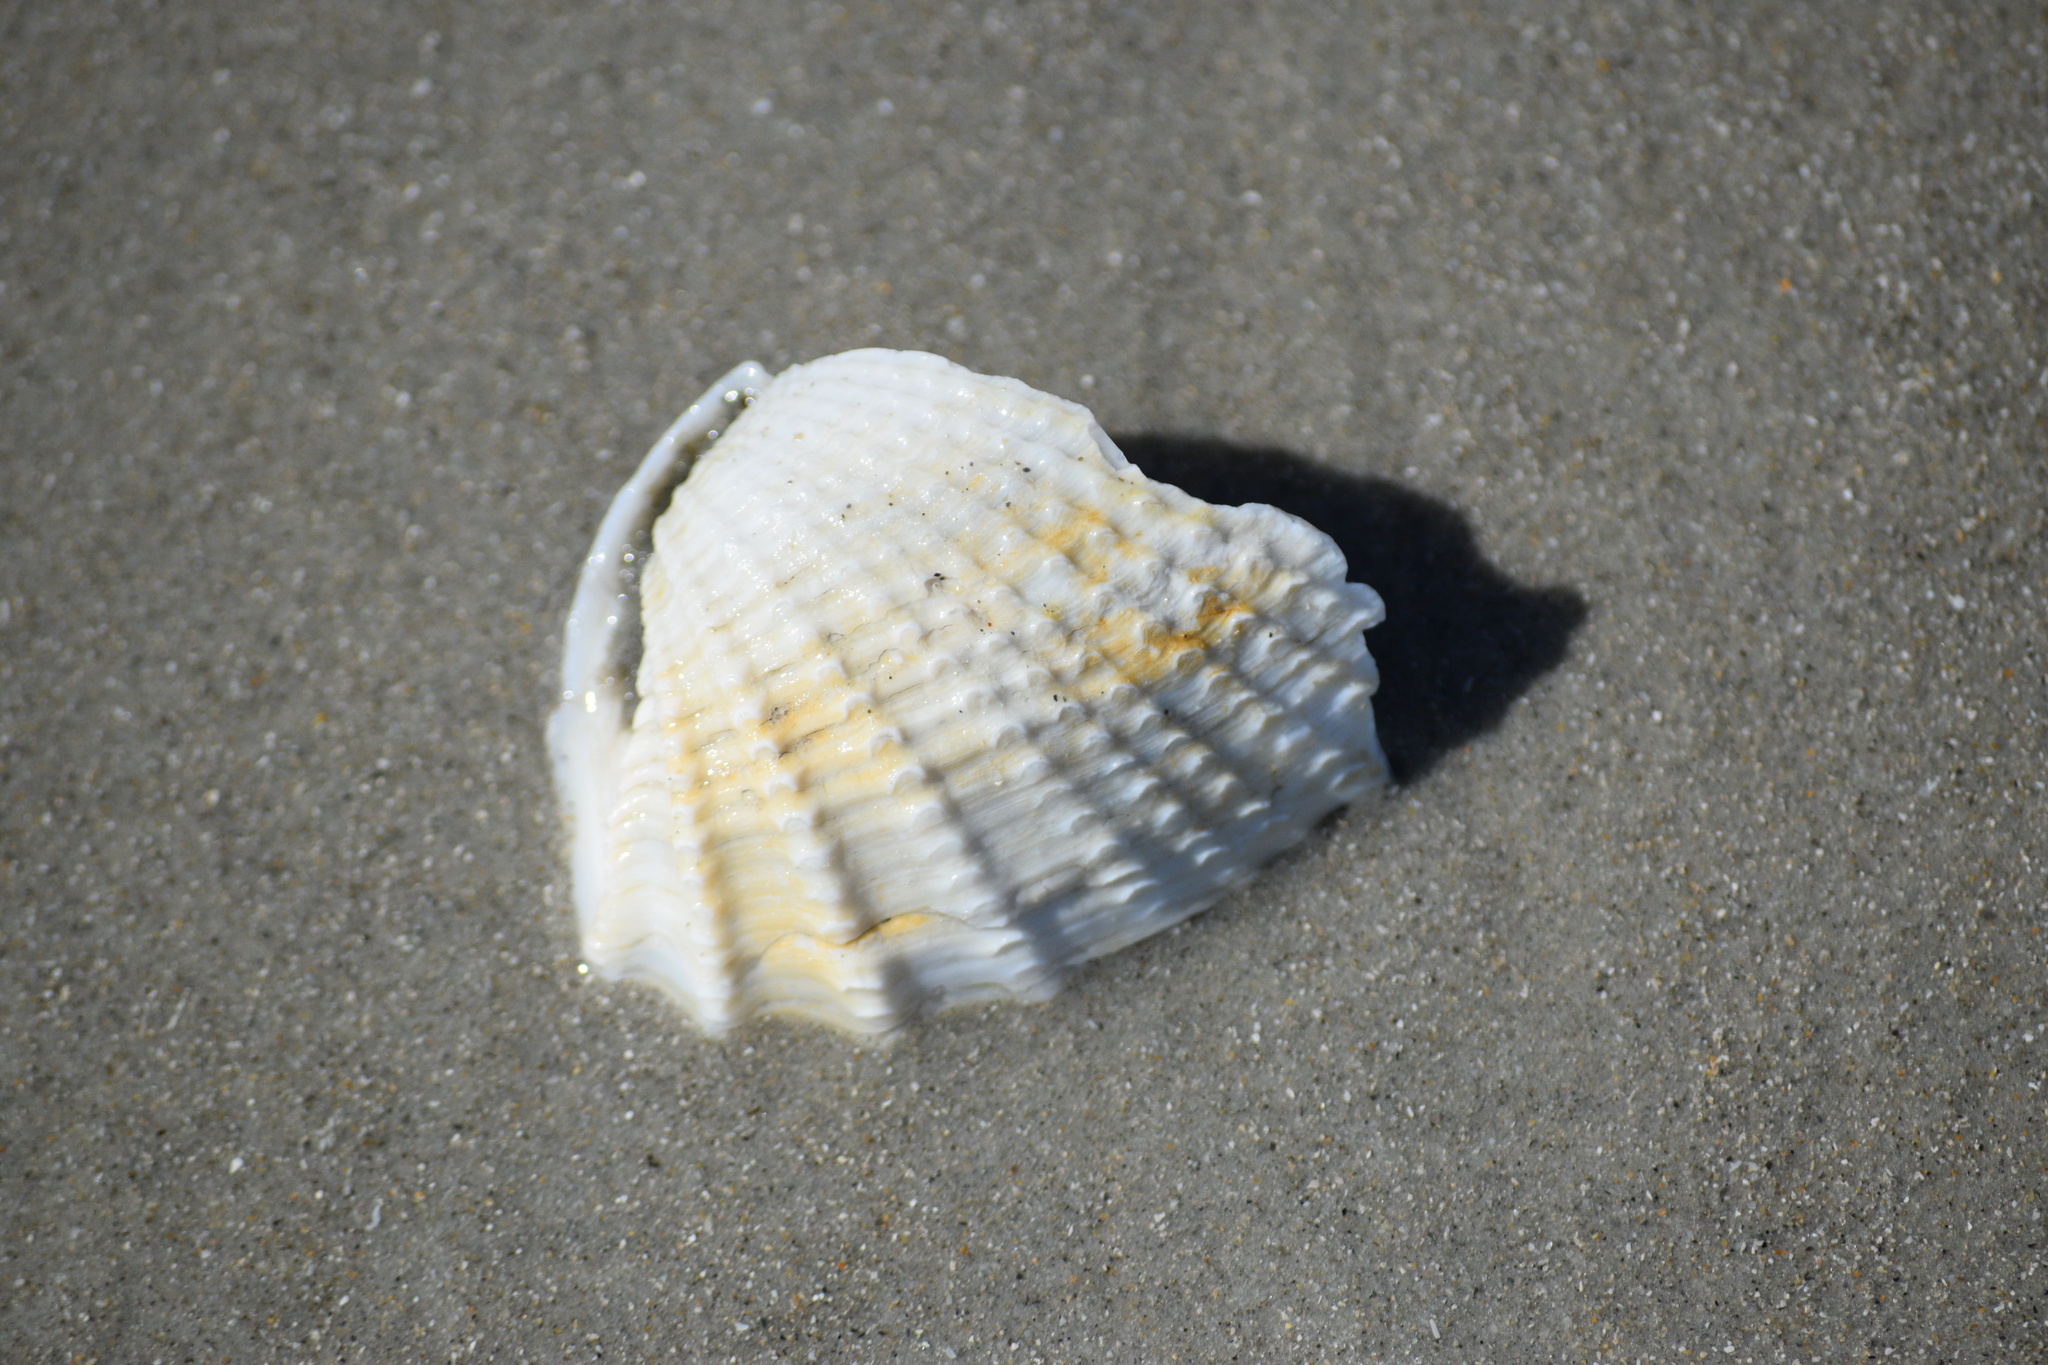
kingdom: Animalia
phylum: Mollusca
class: Bivalvia
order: Myida
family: Pholadidae
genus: Cyrtopleura
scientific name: Cyrtopleura costata
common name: Angel wing
